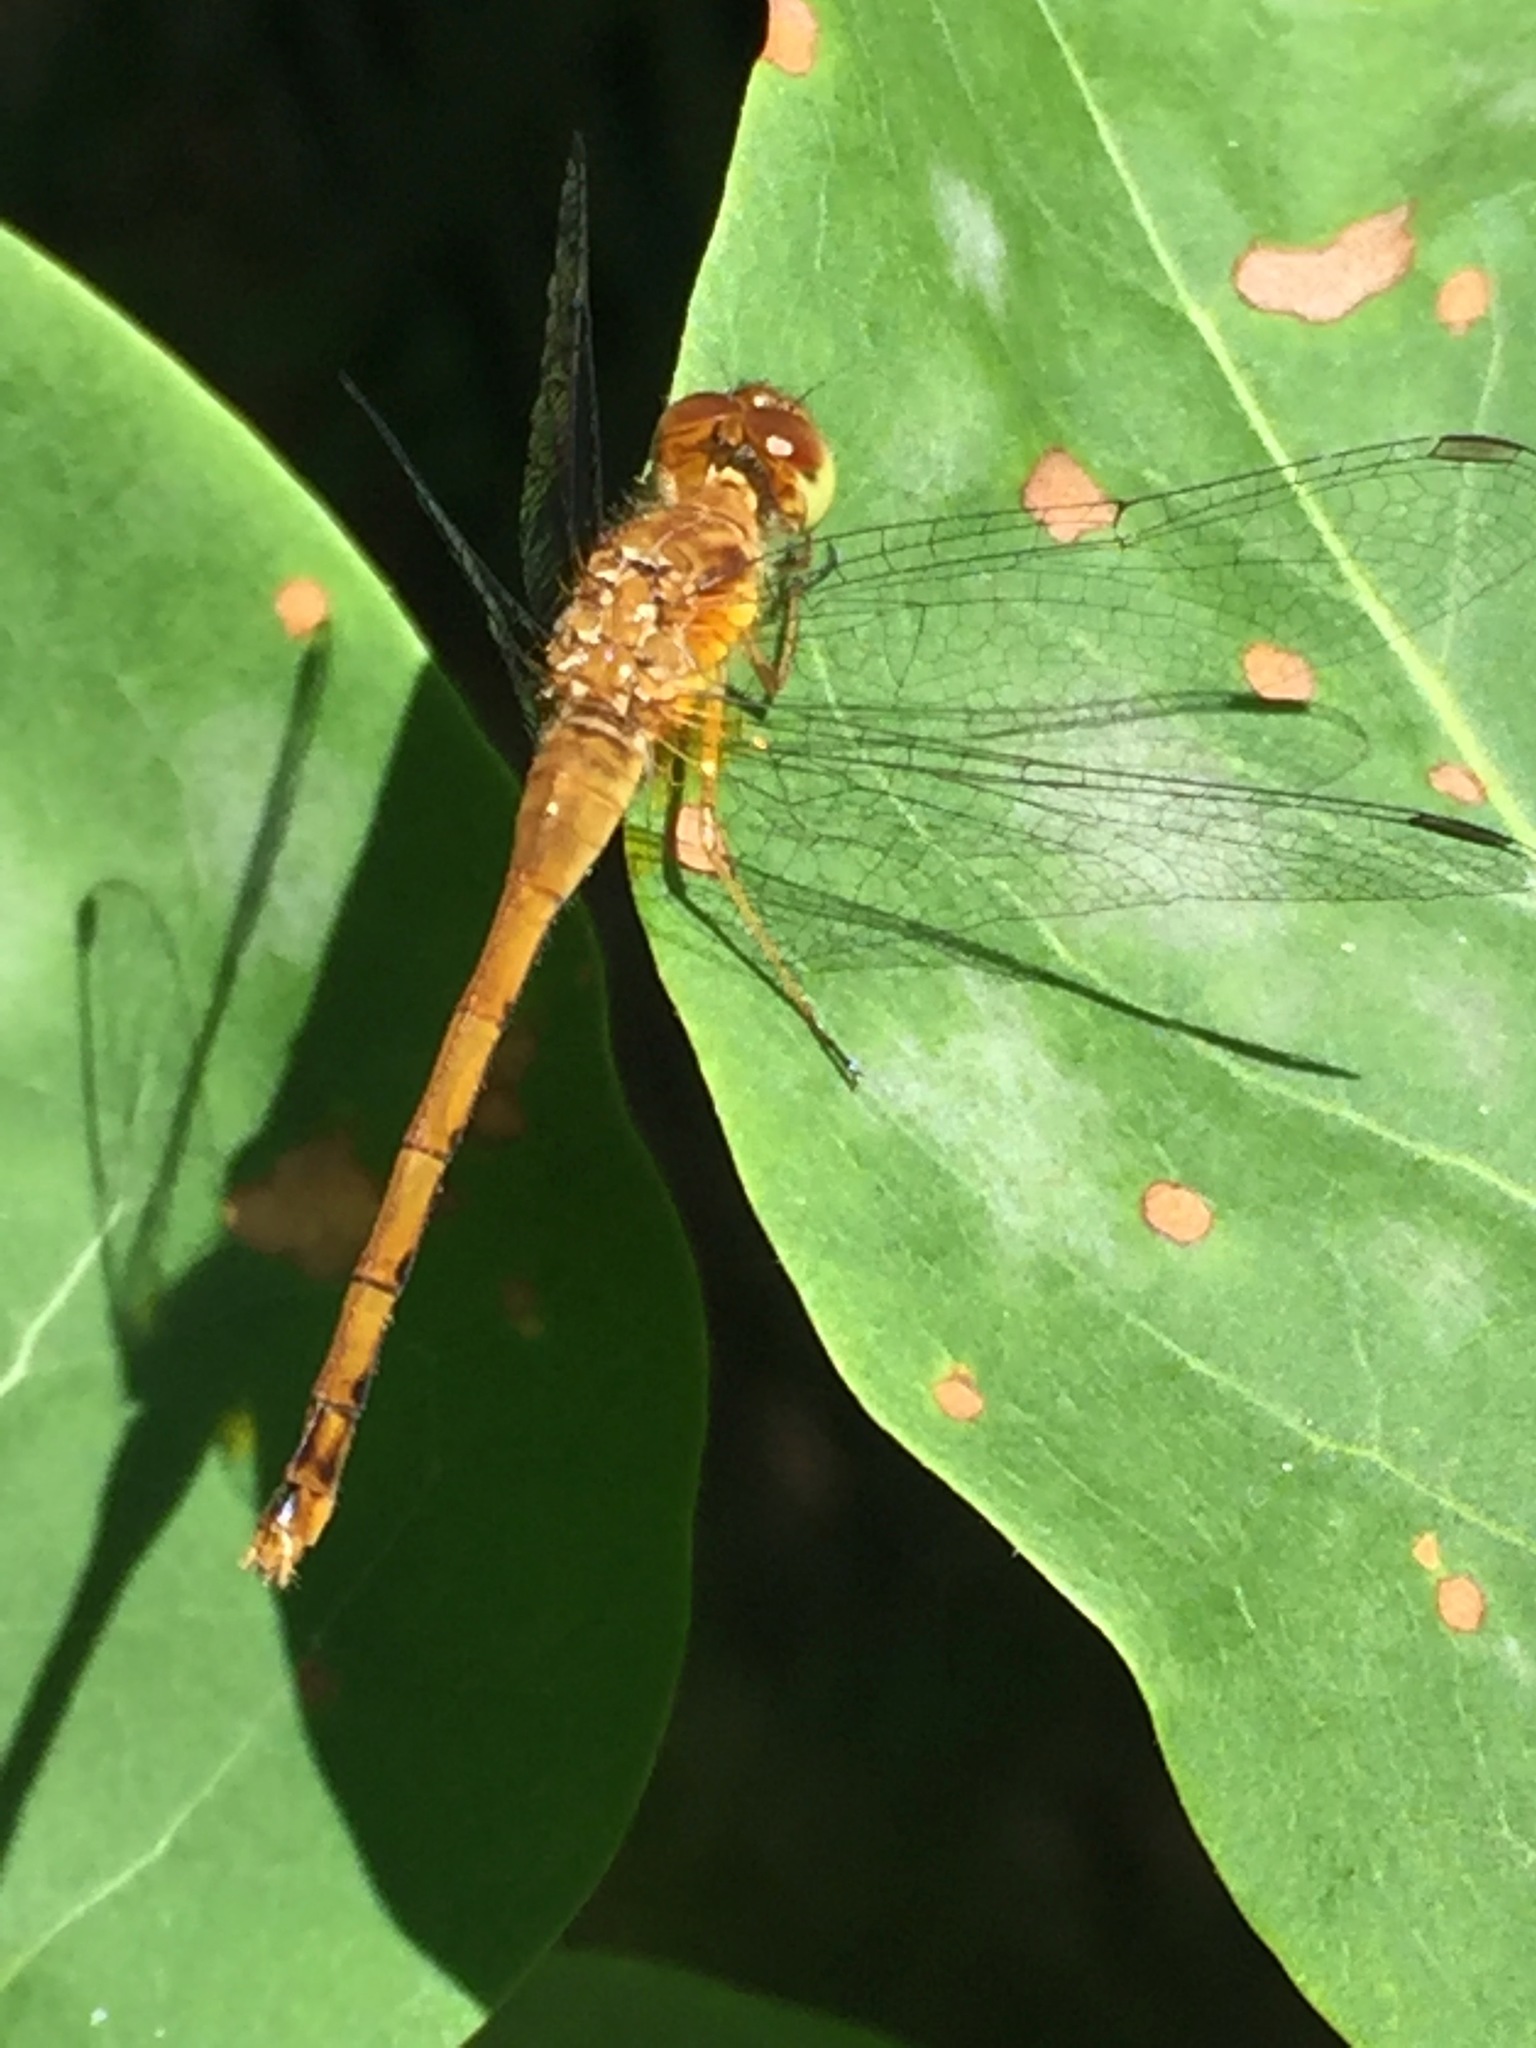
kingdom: Animalia
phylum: Arthropoda
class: Insecta
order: Odonata
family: Libellulidae
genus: Sympetrum
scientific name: Sympetrum vicinum
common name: Autumn meadowhawk
